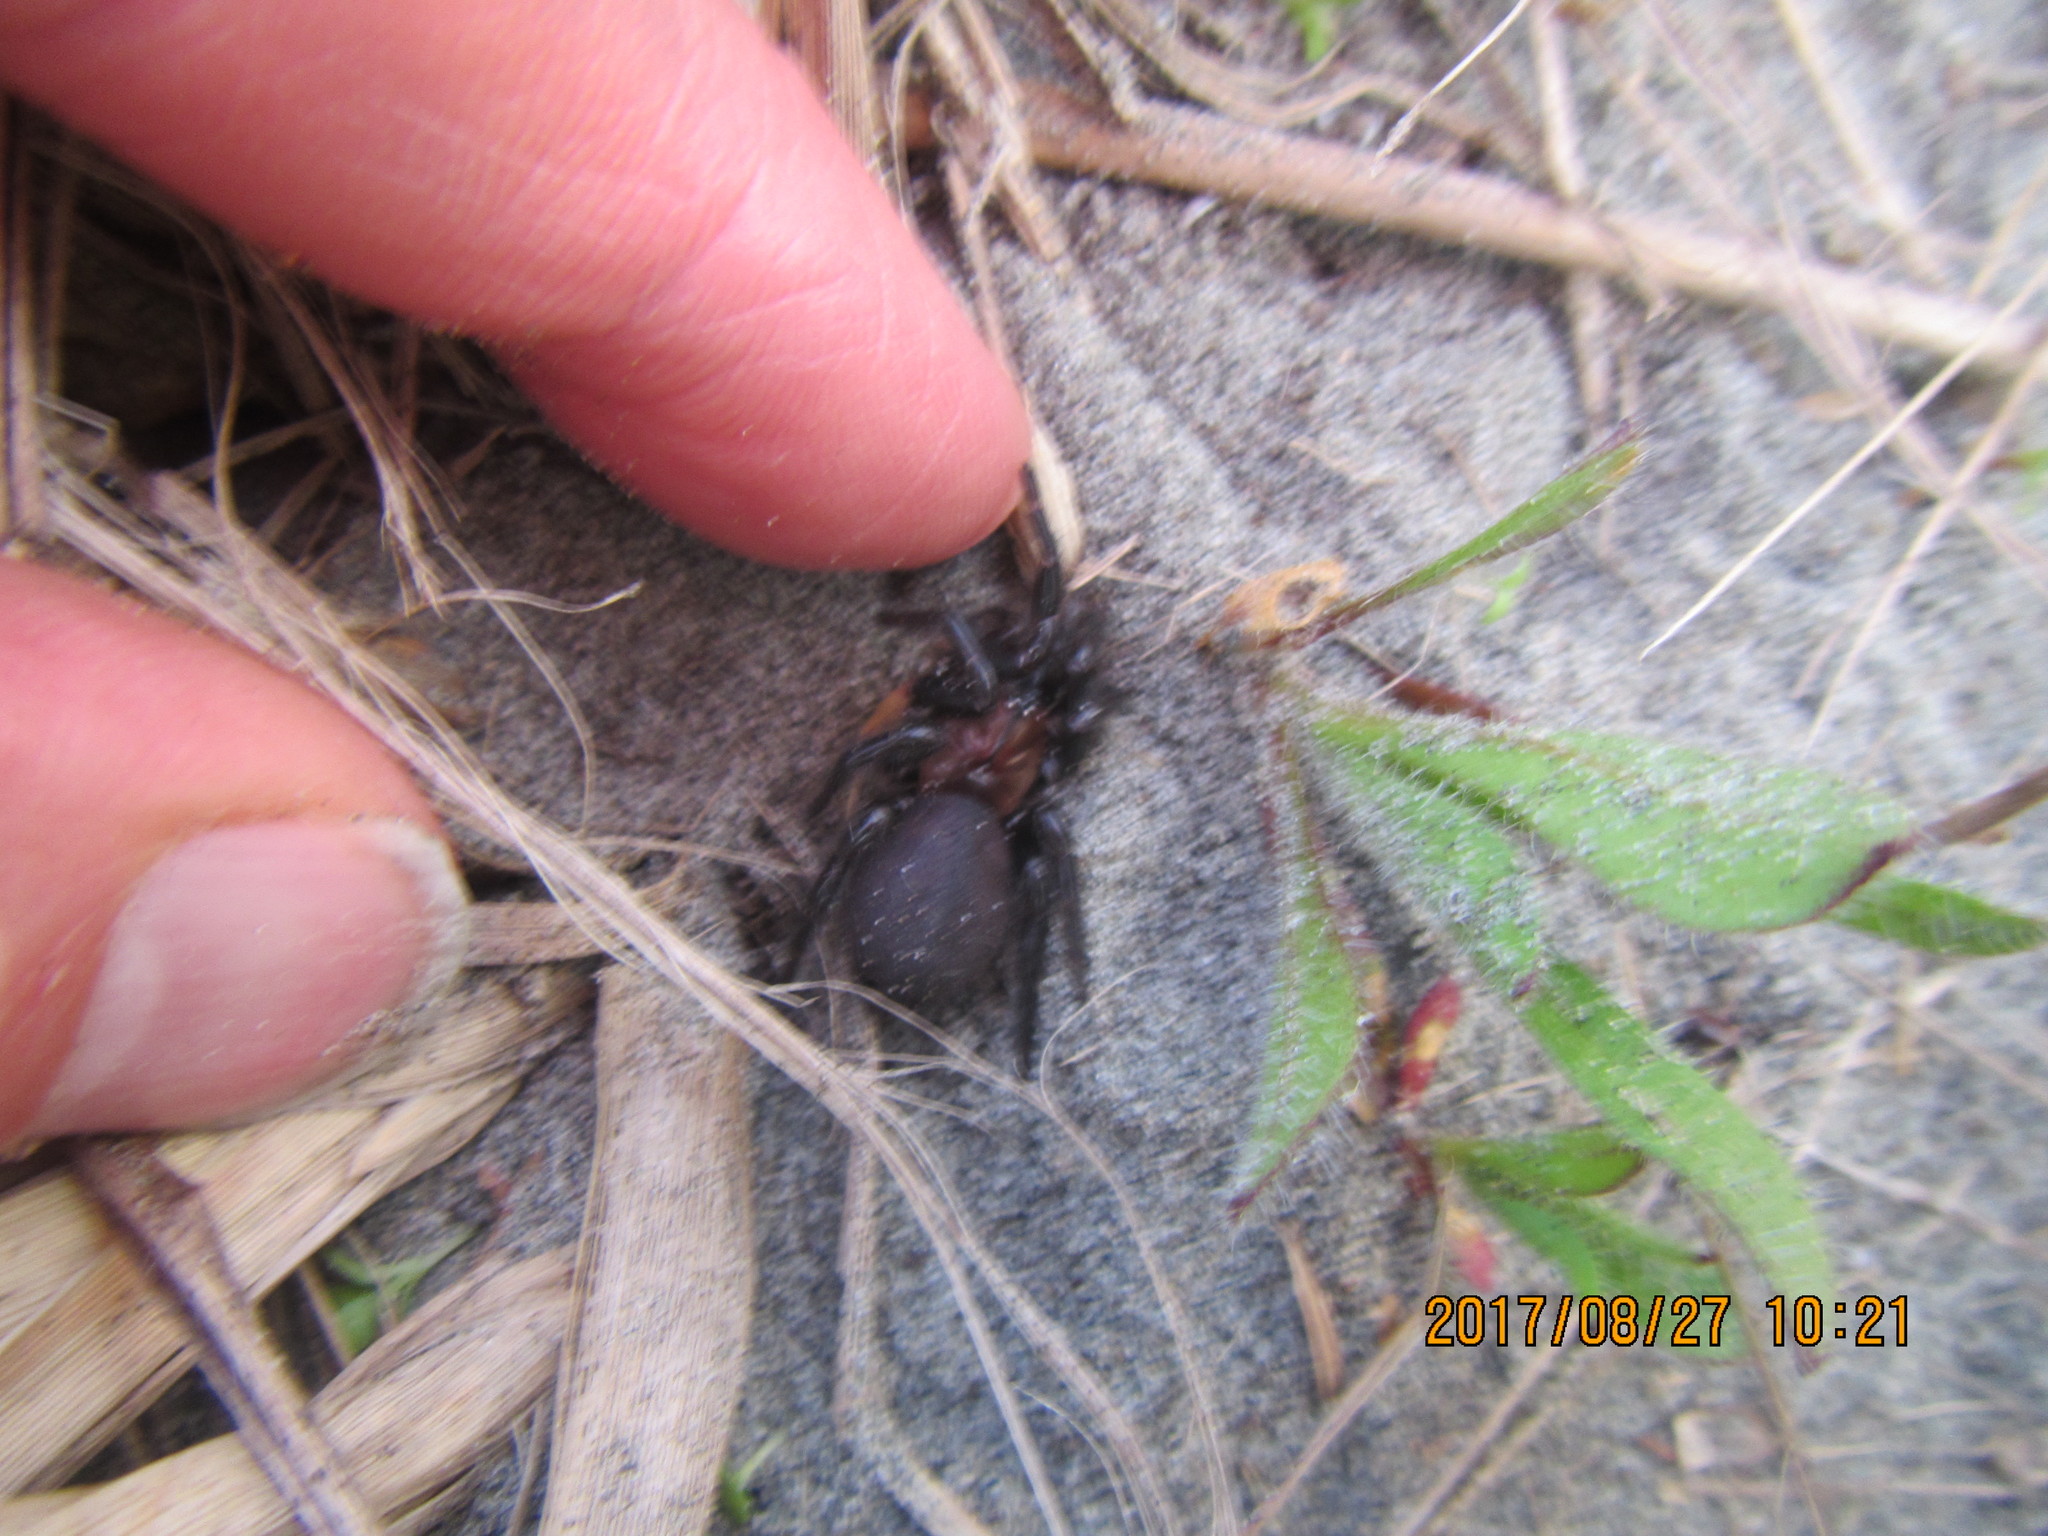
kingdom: Animalia
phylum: Arthropoda
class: Arachnida
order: Araneae
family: Porrhothelidae
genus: Porrhothele
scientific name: Porrhothele antipodiana
